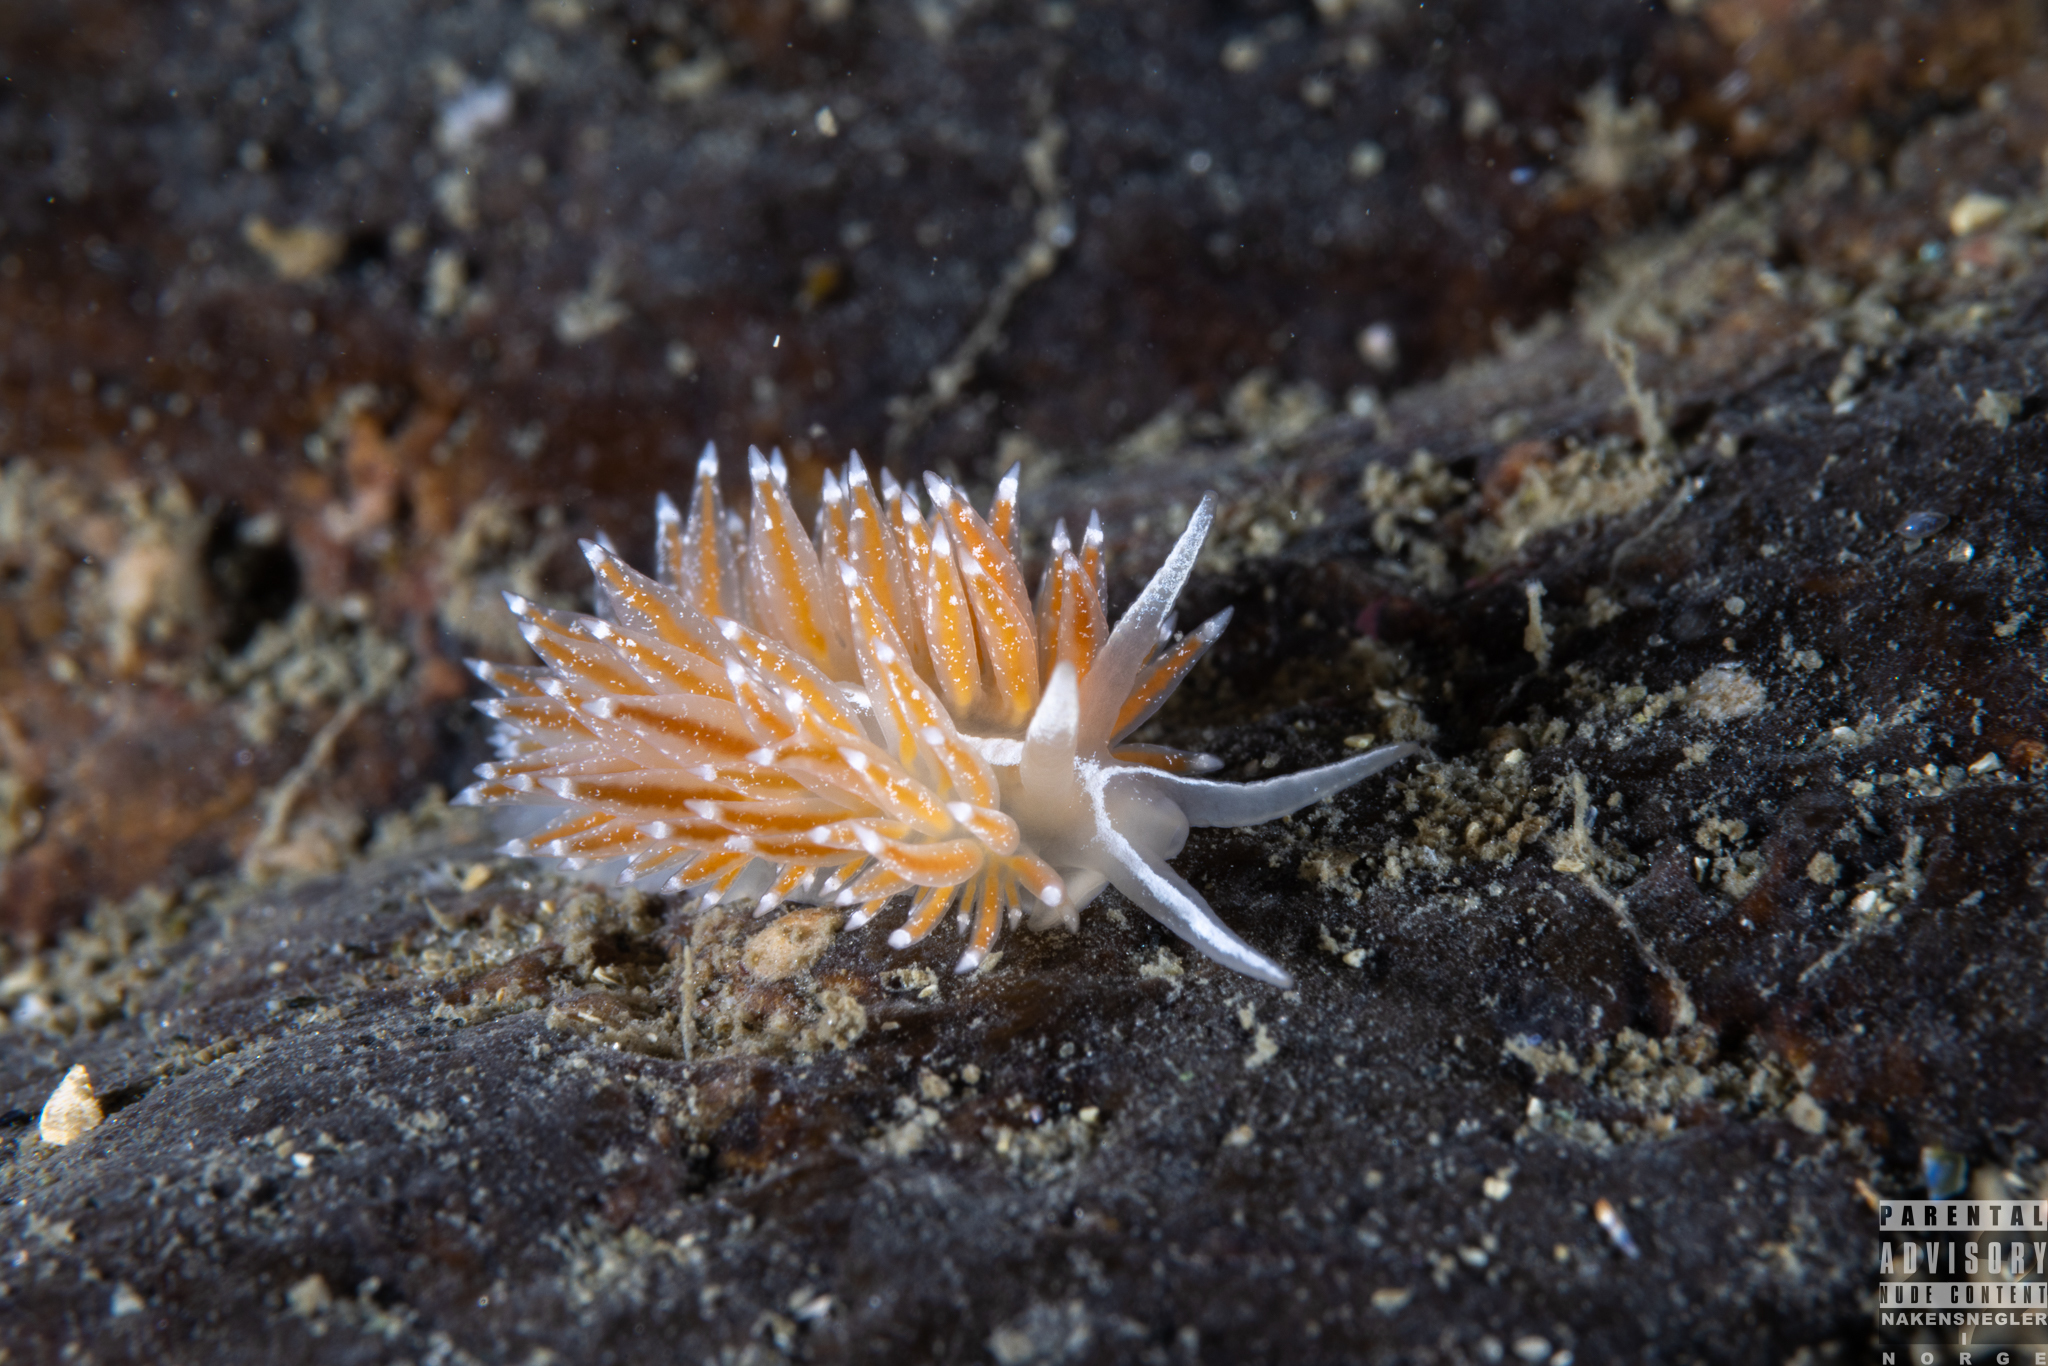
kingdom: Animalia
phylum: Mollusca
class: Gastropoda
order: Nudibranchia
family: Coryphellidae
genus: Coryphella
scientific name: Coryphella monicae
